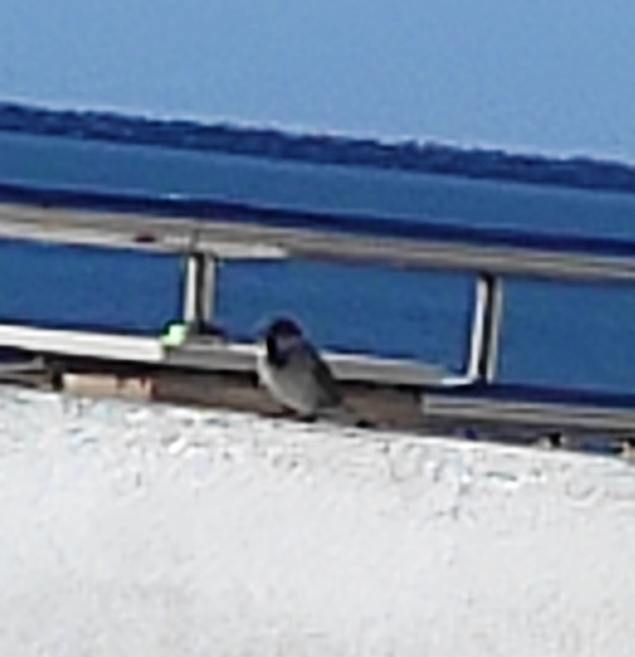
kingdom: Animalia
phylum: Chordata
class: Aves
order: Passeriformes
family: Passeridae
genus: Passer
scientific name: Passer domesticus
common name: House sparrow
